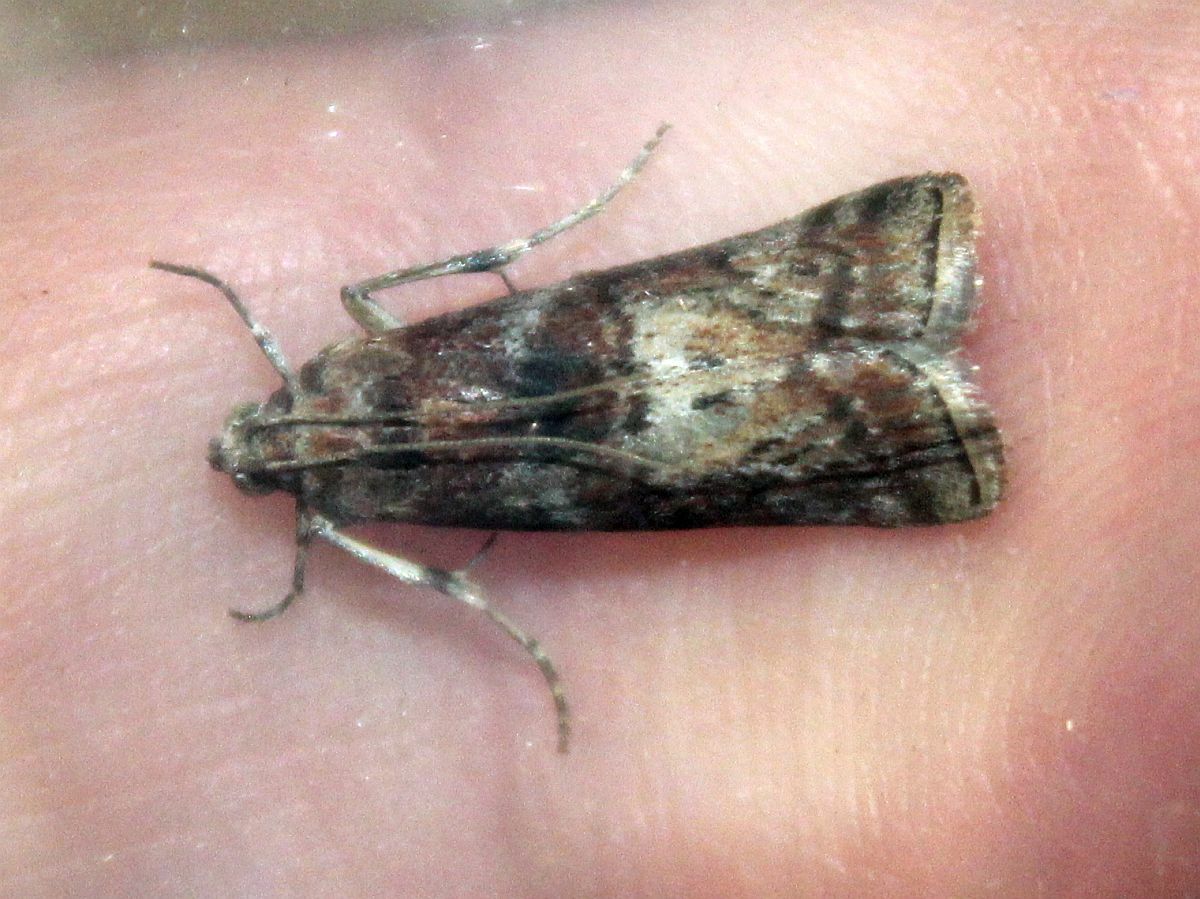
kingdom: Animalia
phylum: Arthropoda
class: Insecta
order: Lepidoptera
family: Pyralidae
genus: Phycita
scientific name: Phycita roborella
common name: Dotted oak knot-horn
